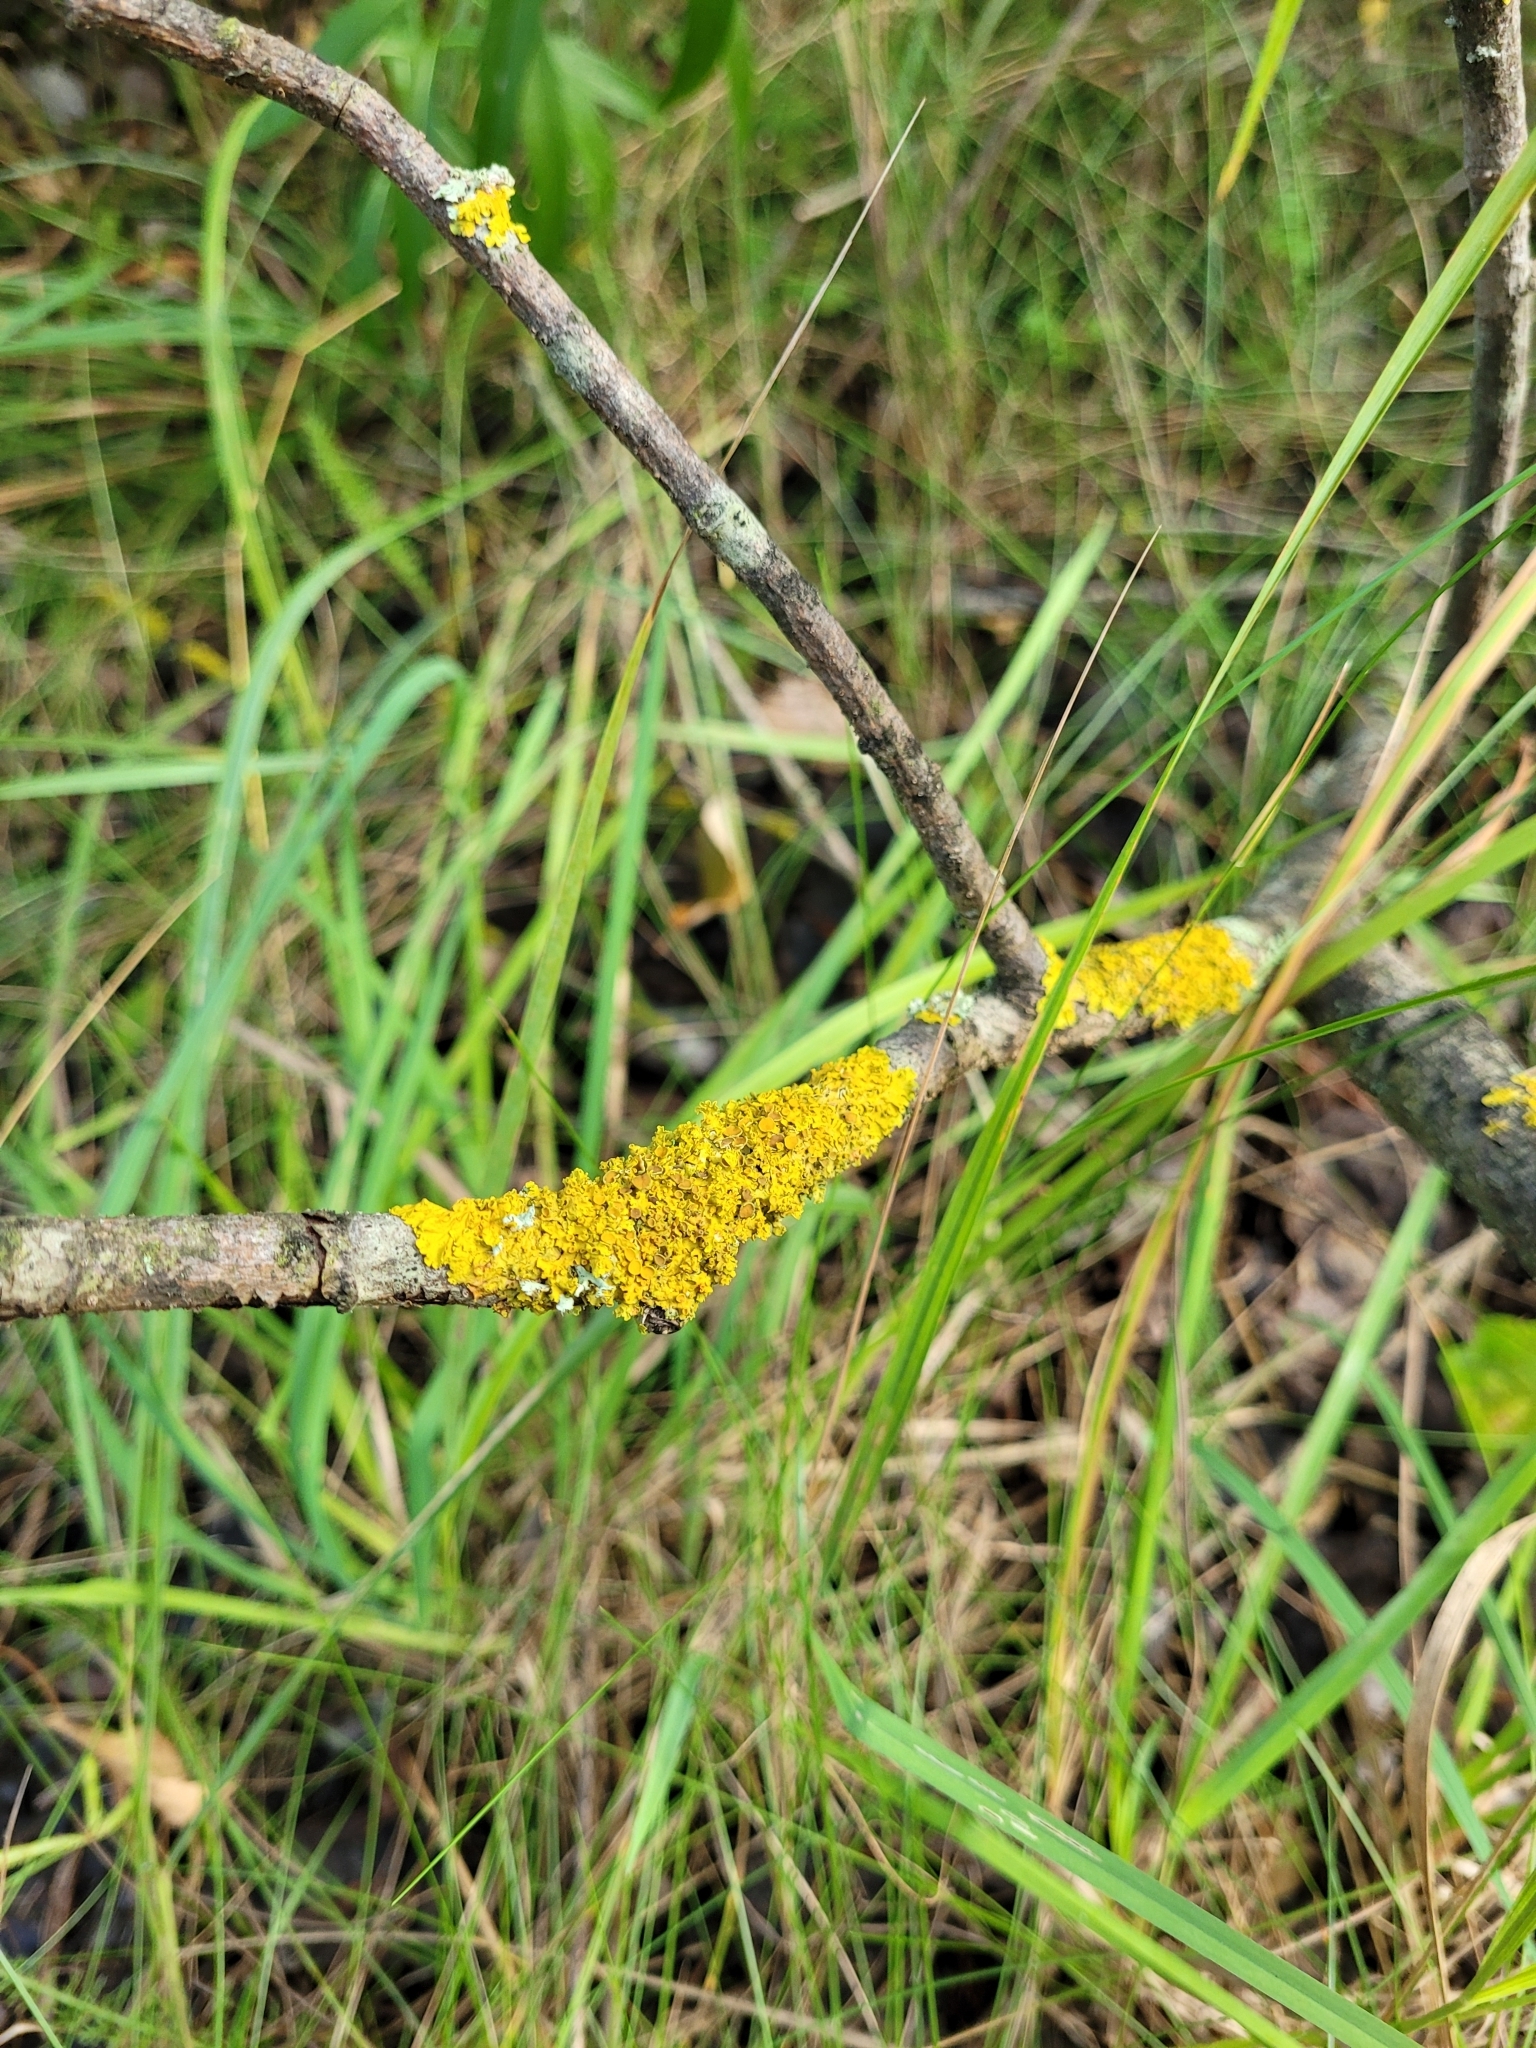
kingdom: Fungi
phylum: Ascomycota
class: Lecanoromycetes
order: Teloschistales
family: Teloschistaceae
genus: Xanthoria
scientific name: Xanthoria parietina
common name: Common orange lichen
